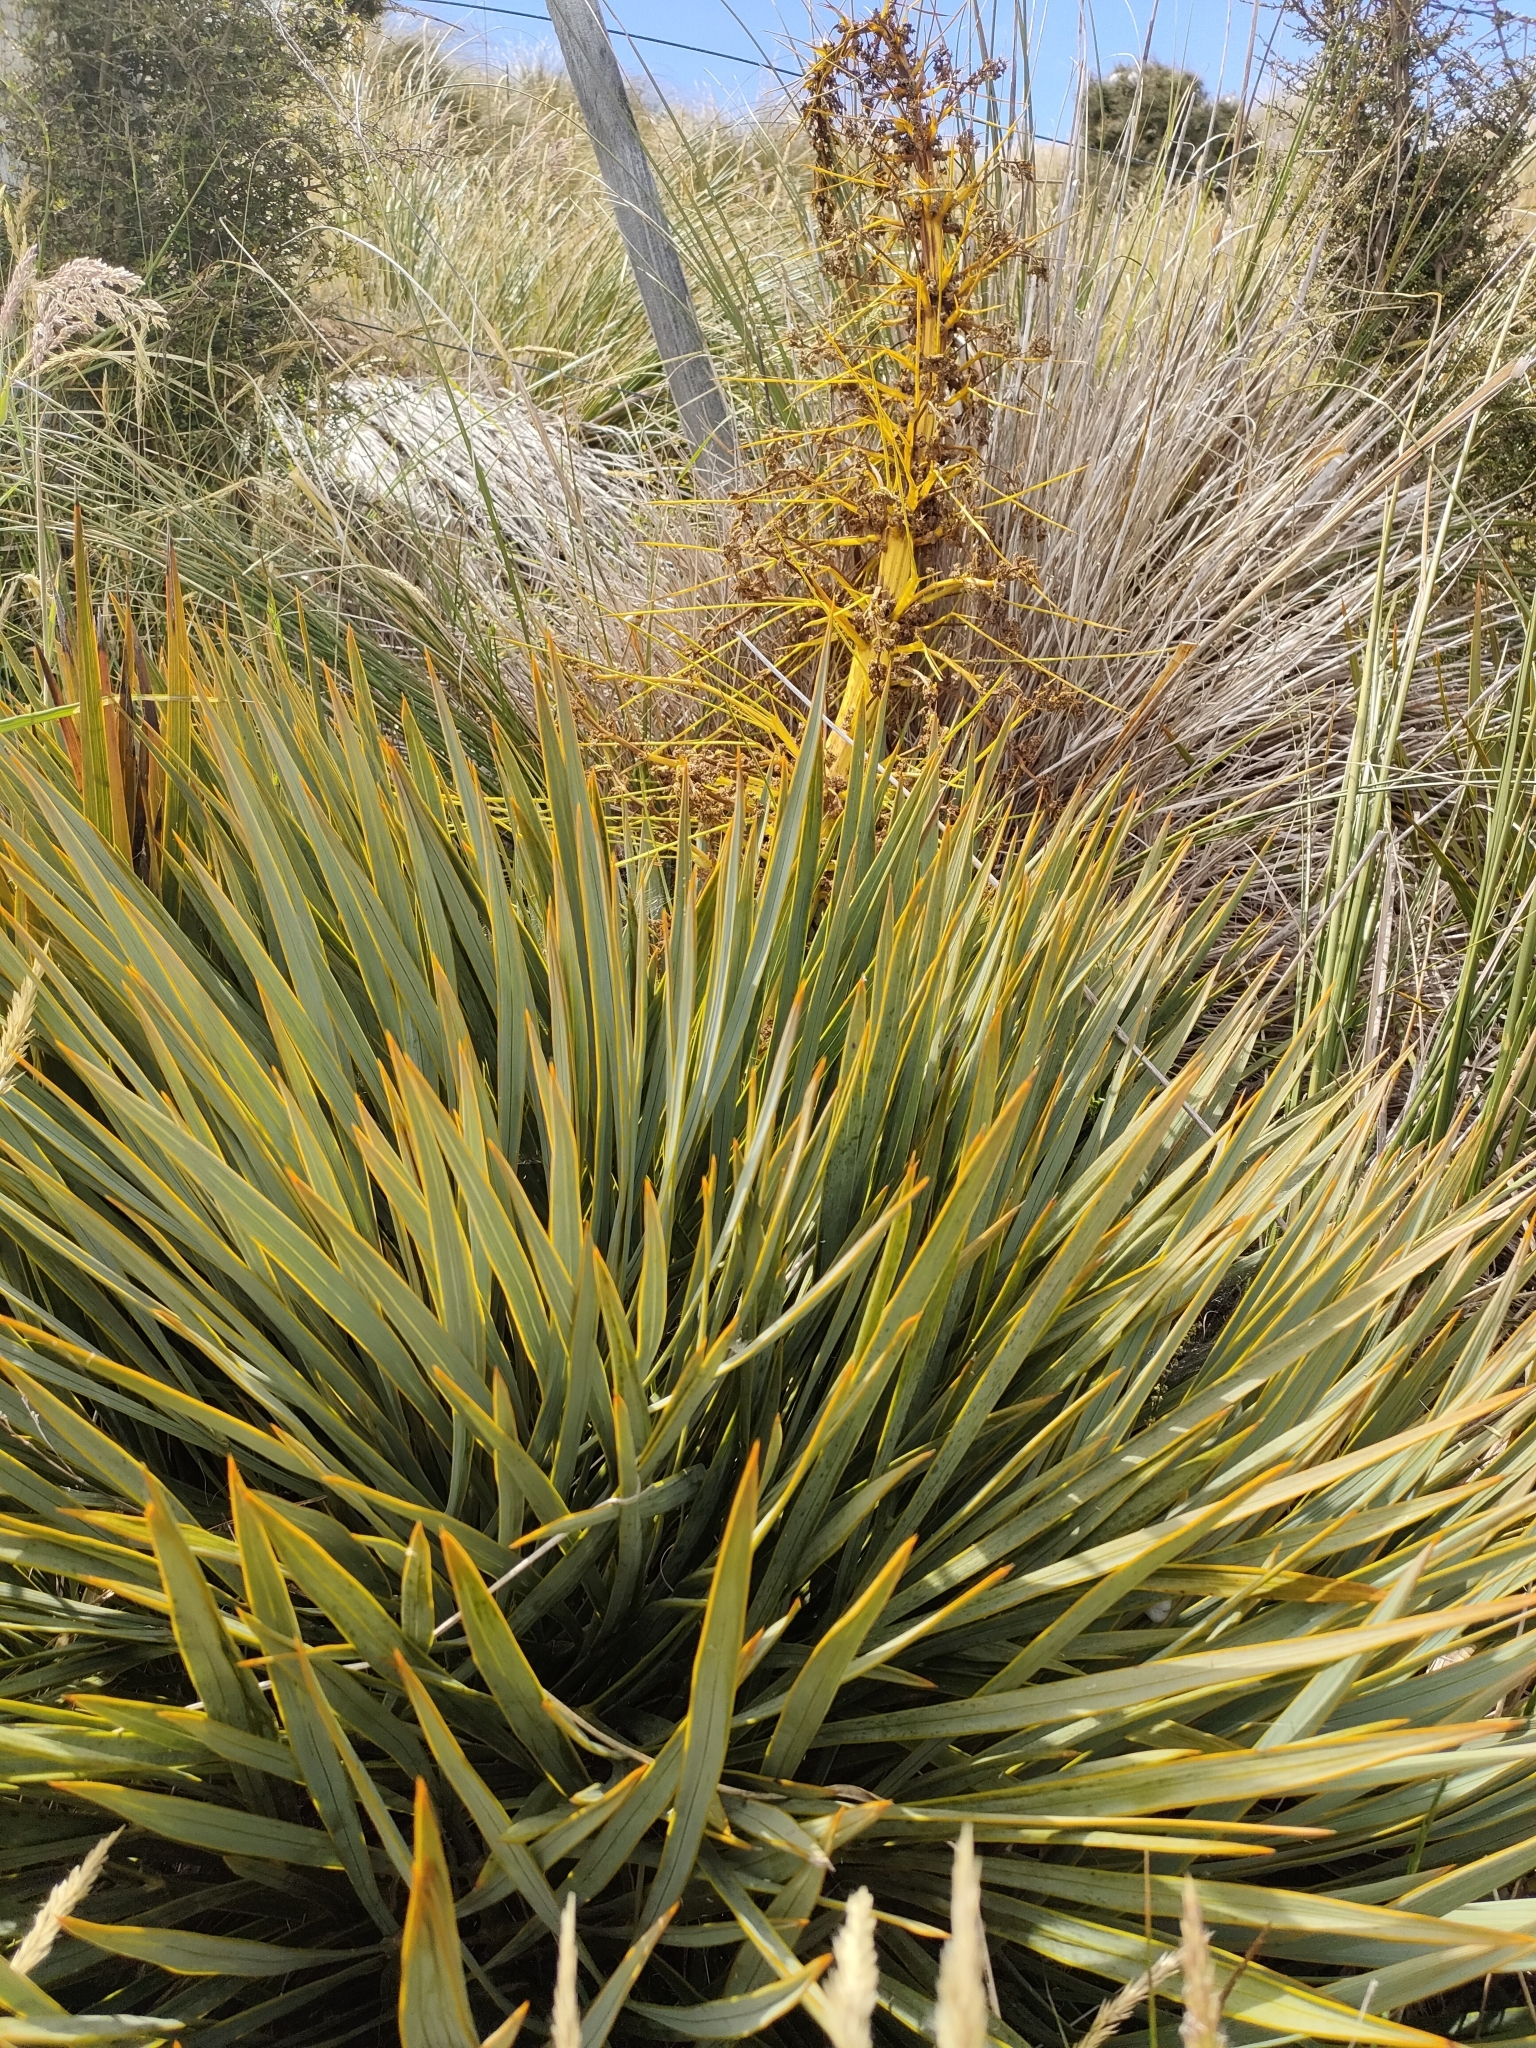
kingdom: Plantae
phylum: Tracheophyta
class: Magnoliopsida
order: Apiales
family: Apiaceae
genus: Aciphylla
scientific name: Aciphylla aurea
